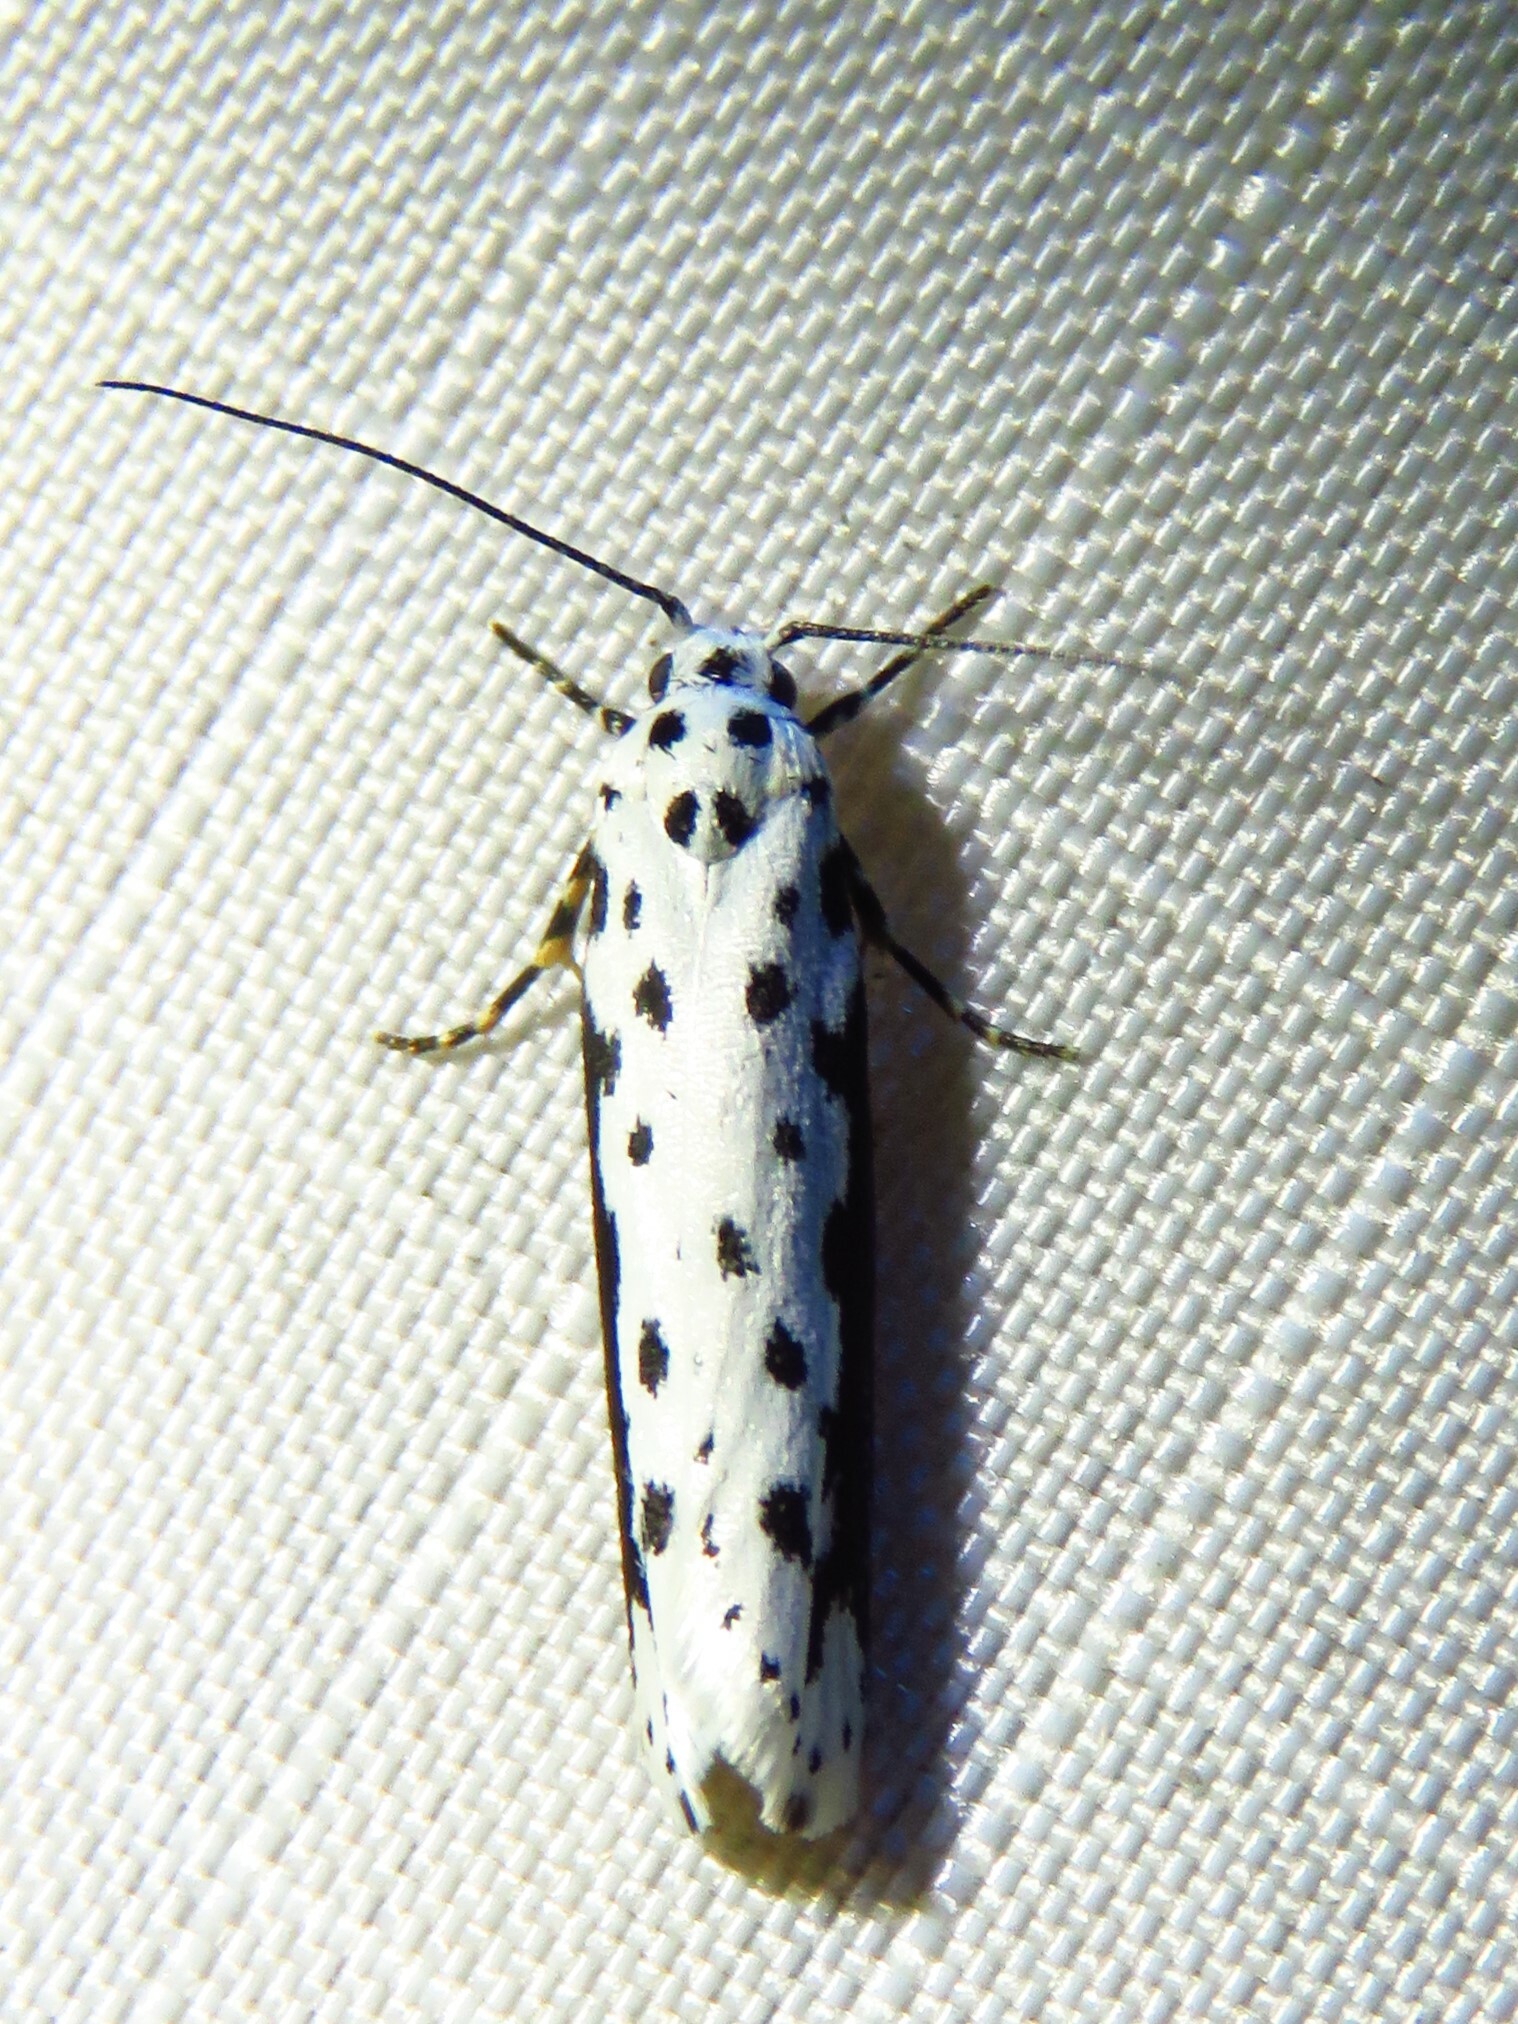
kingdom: Animalia
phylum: Arthropoda
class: Insecta
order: Lepidoptera
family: Ethmiidae
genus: Ethmia
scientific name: Ethmia hagenella
